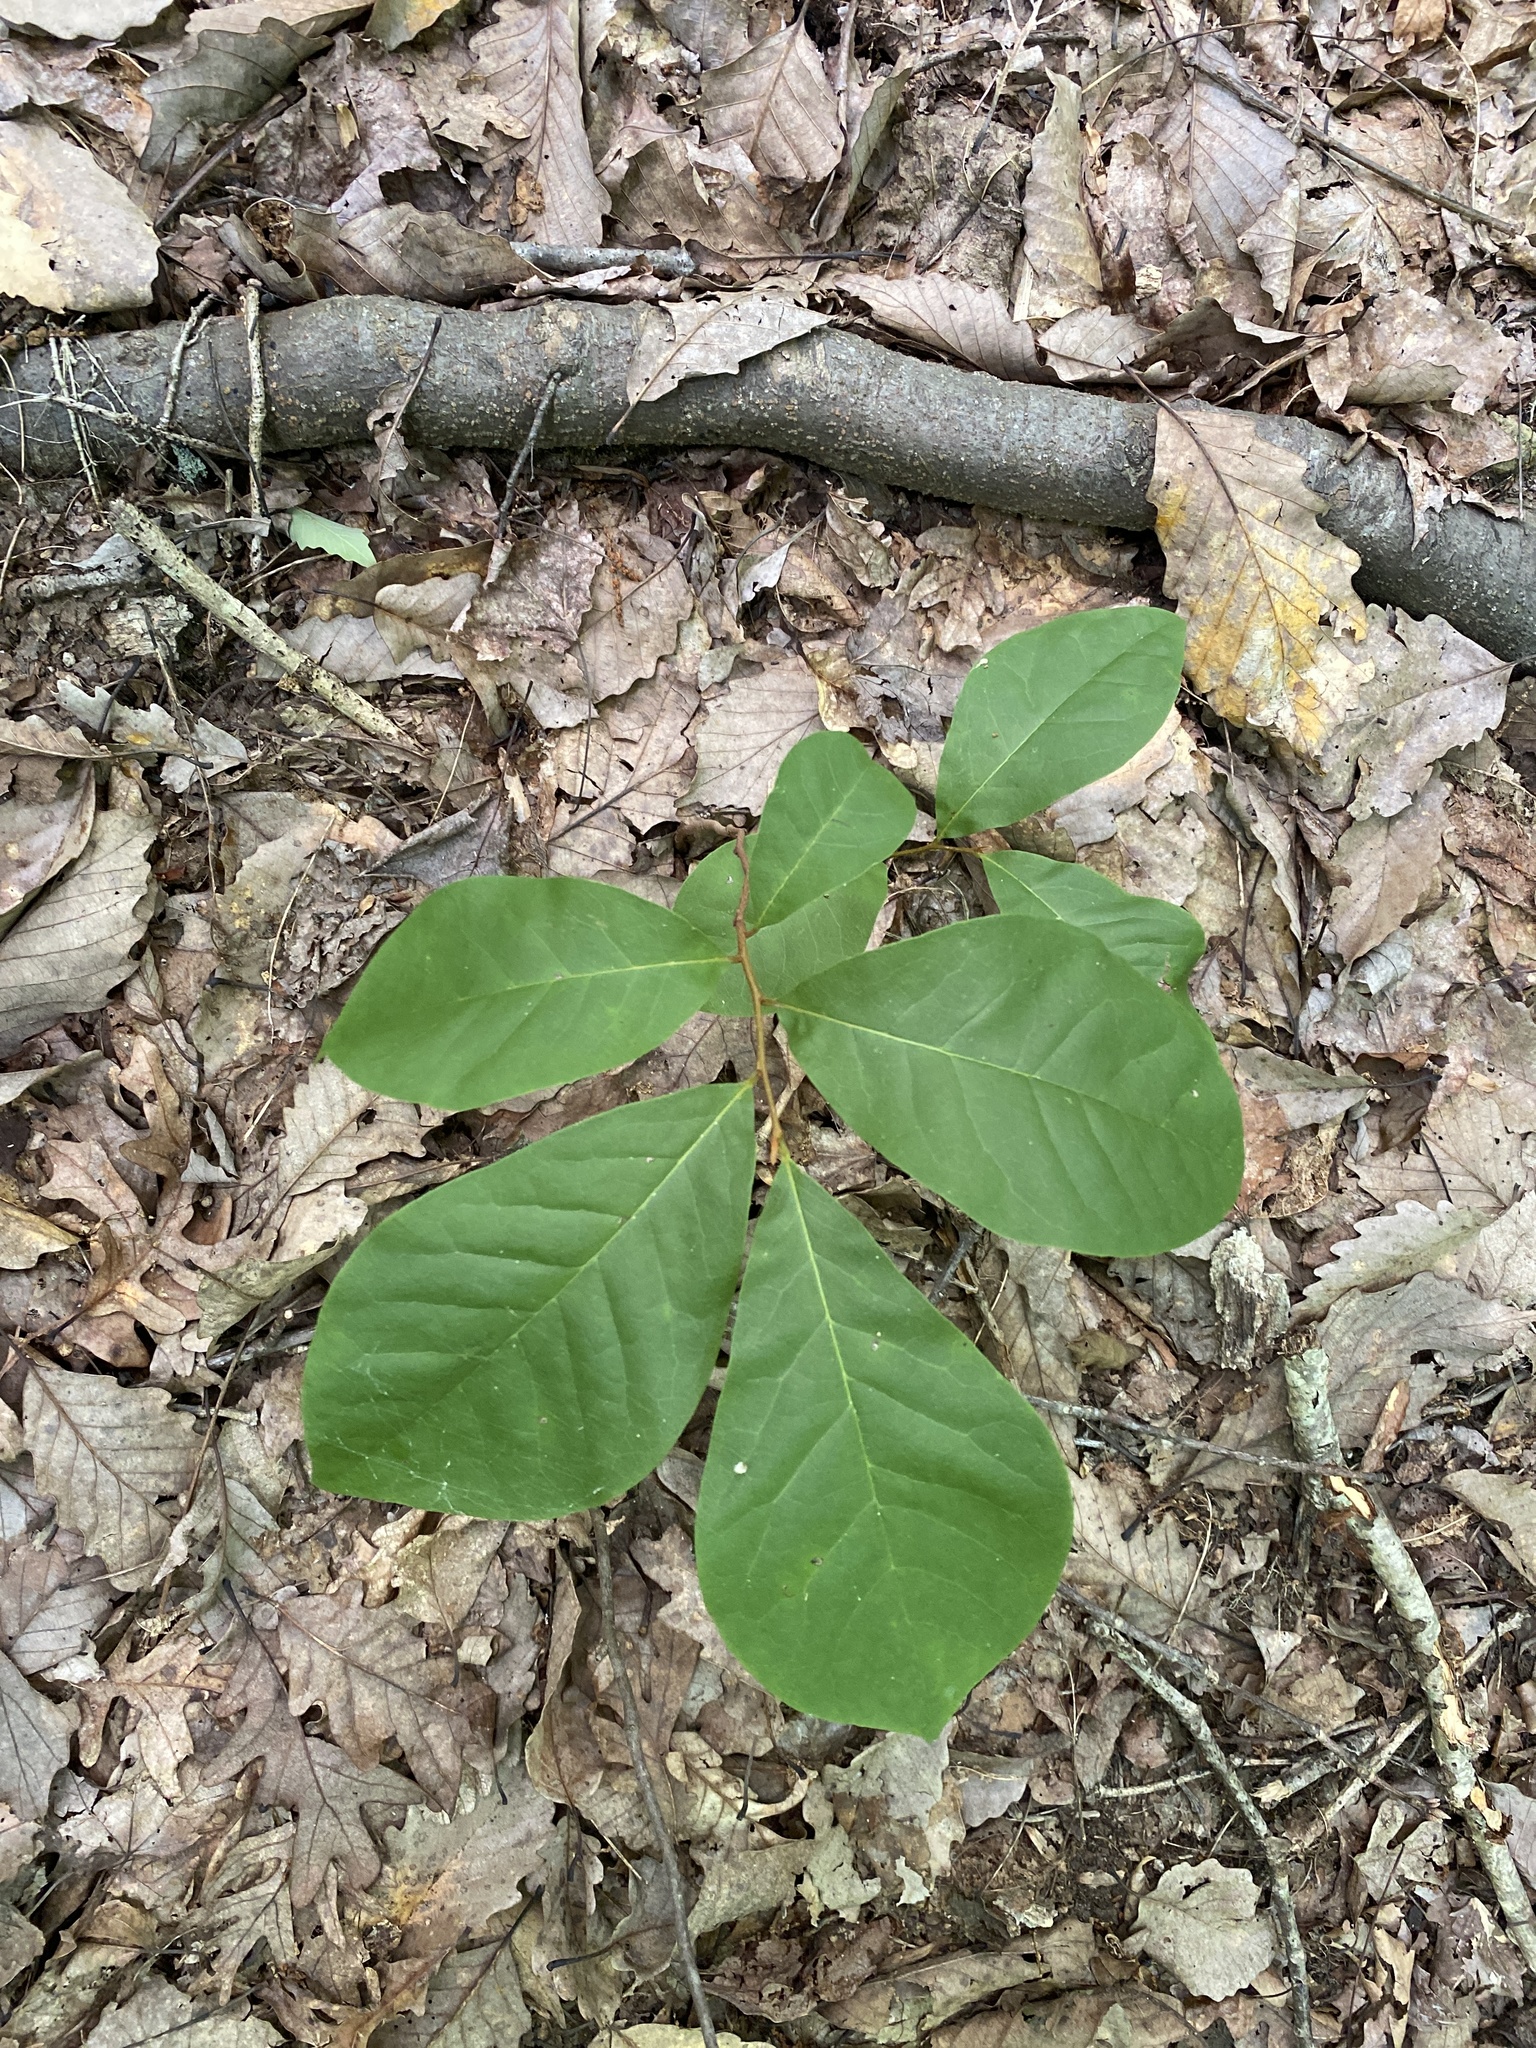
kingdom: Plantae
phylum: Tracheophyta
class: Magnoliopsida
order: Magnoliales
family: Annonaceae
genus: Asimina
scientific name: Asimina parviflora
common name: Dwarf pawpaw
